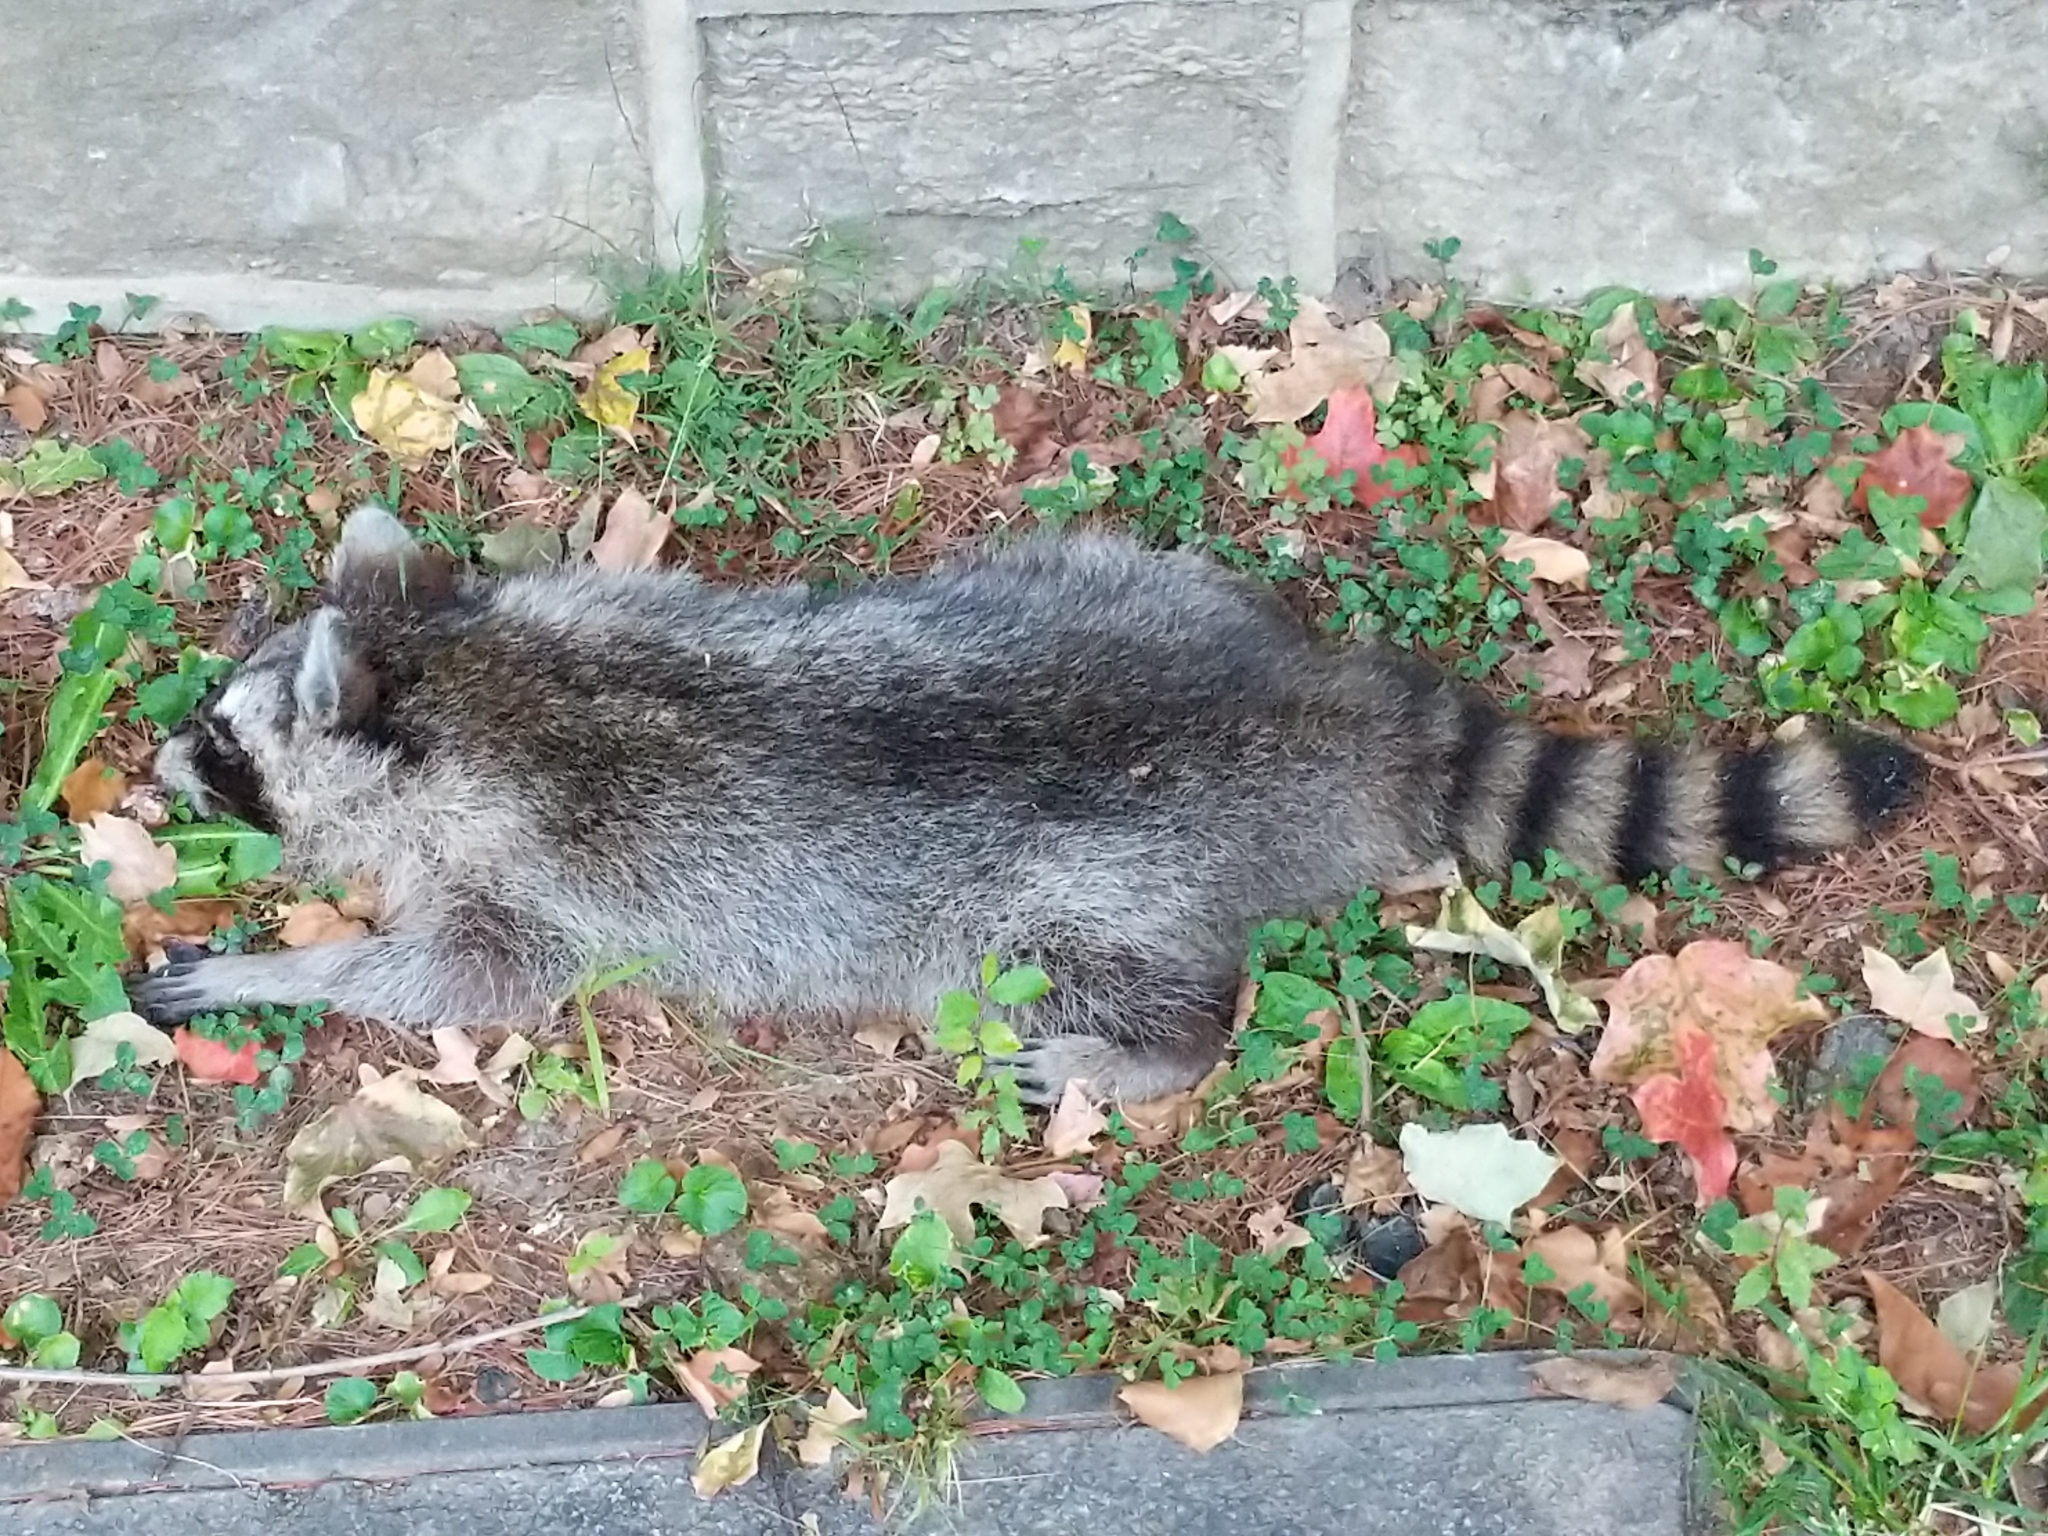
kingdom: Animalia
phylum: Chordata
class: Mammalia
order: Carnivora
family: Procyonidae
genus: Procyon
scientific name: Procyon lotor
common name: Raccoon
